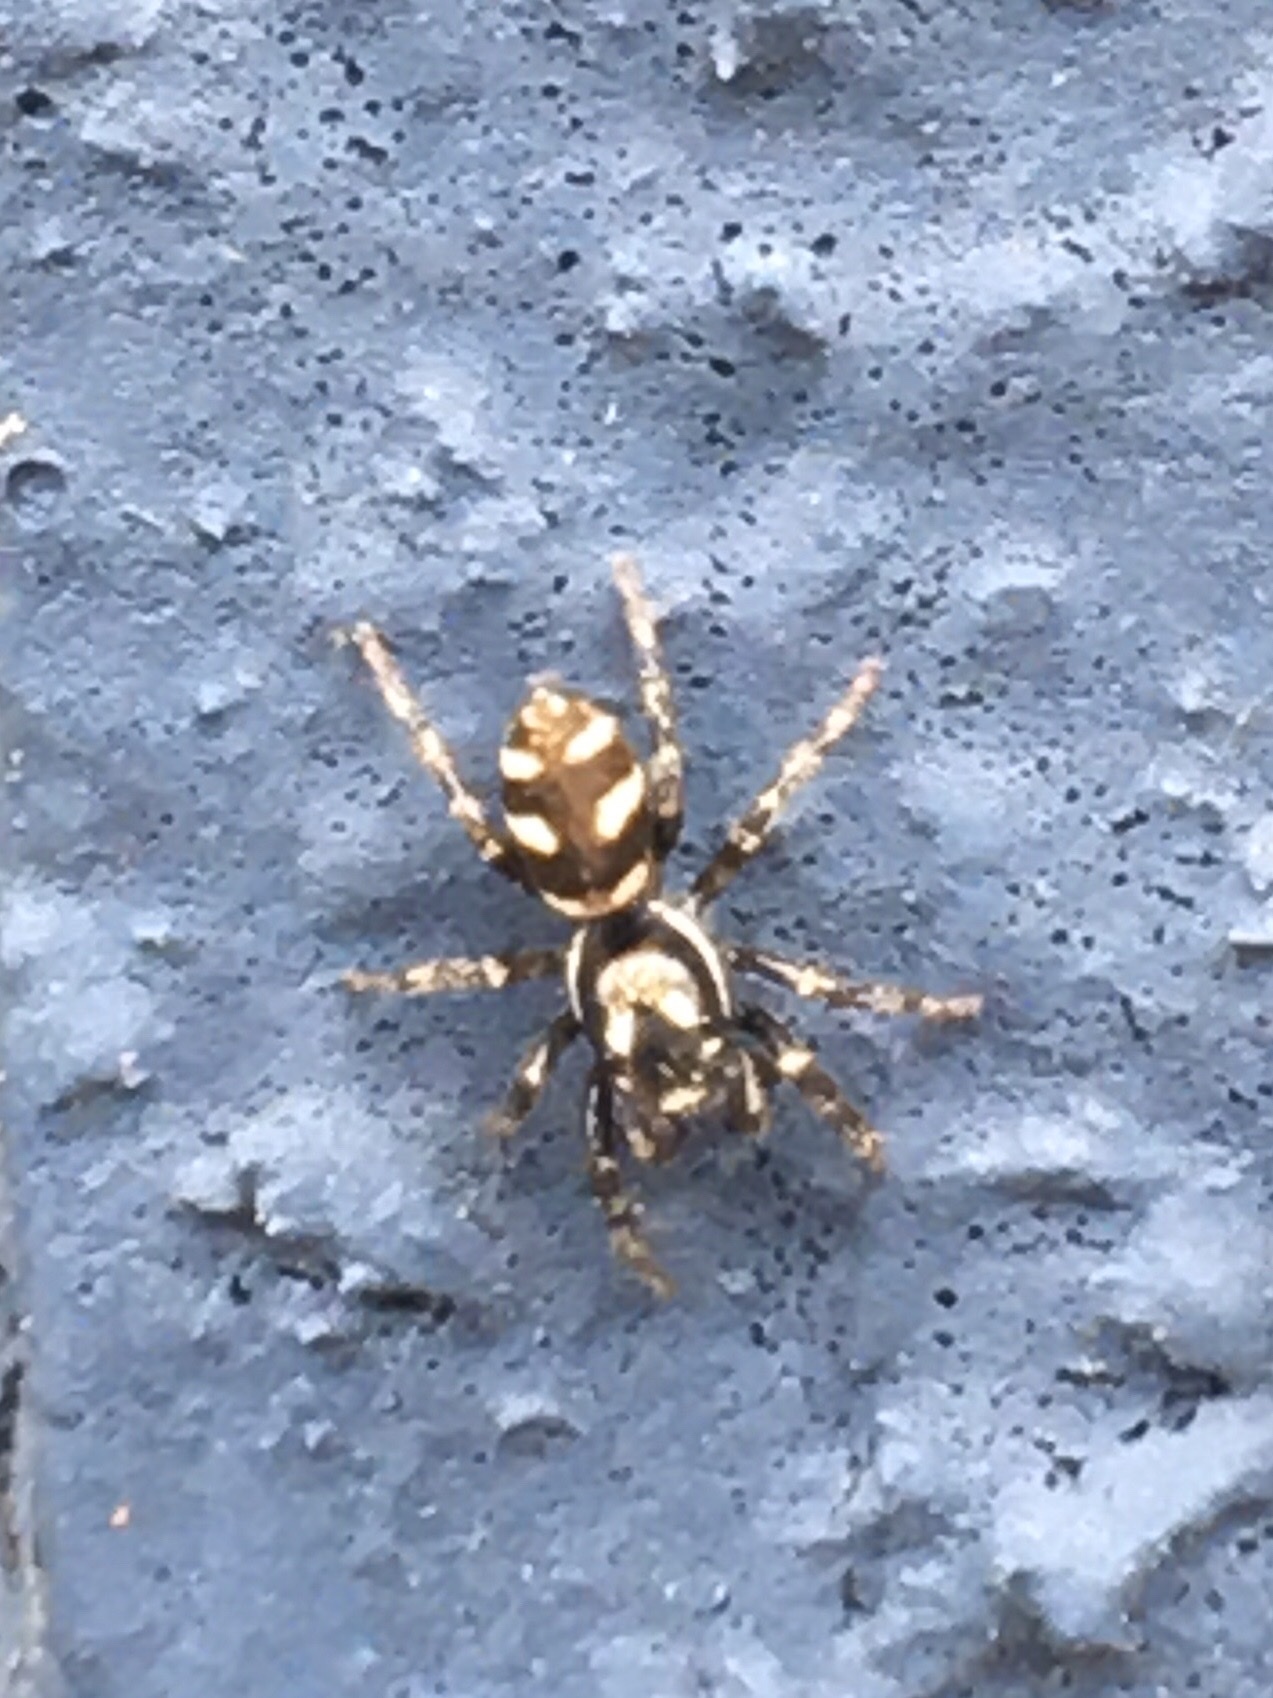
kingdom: Animalia
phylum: Arthropoda
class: Arachnida
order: Araneae
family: Salticidae
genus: Salticus
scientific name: Salticus scenicus
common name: Zebra jumper
